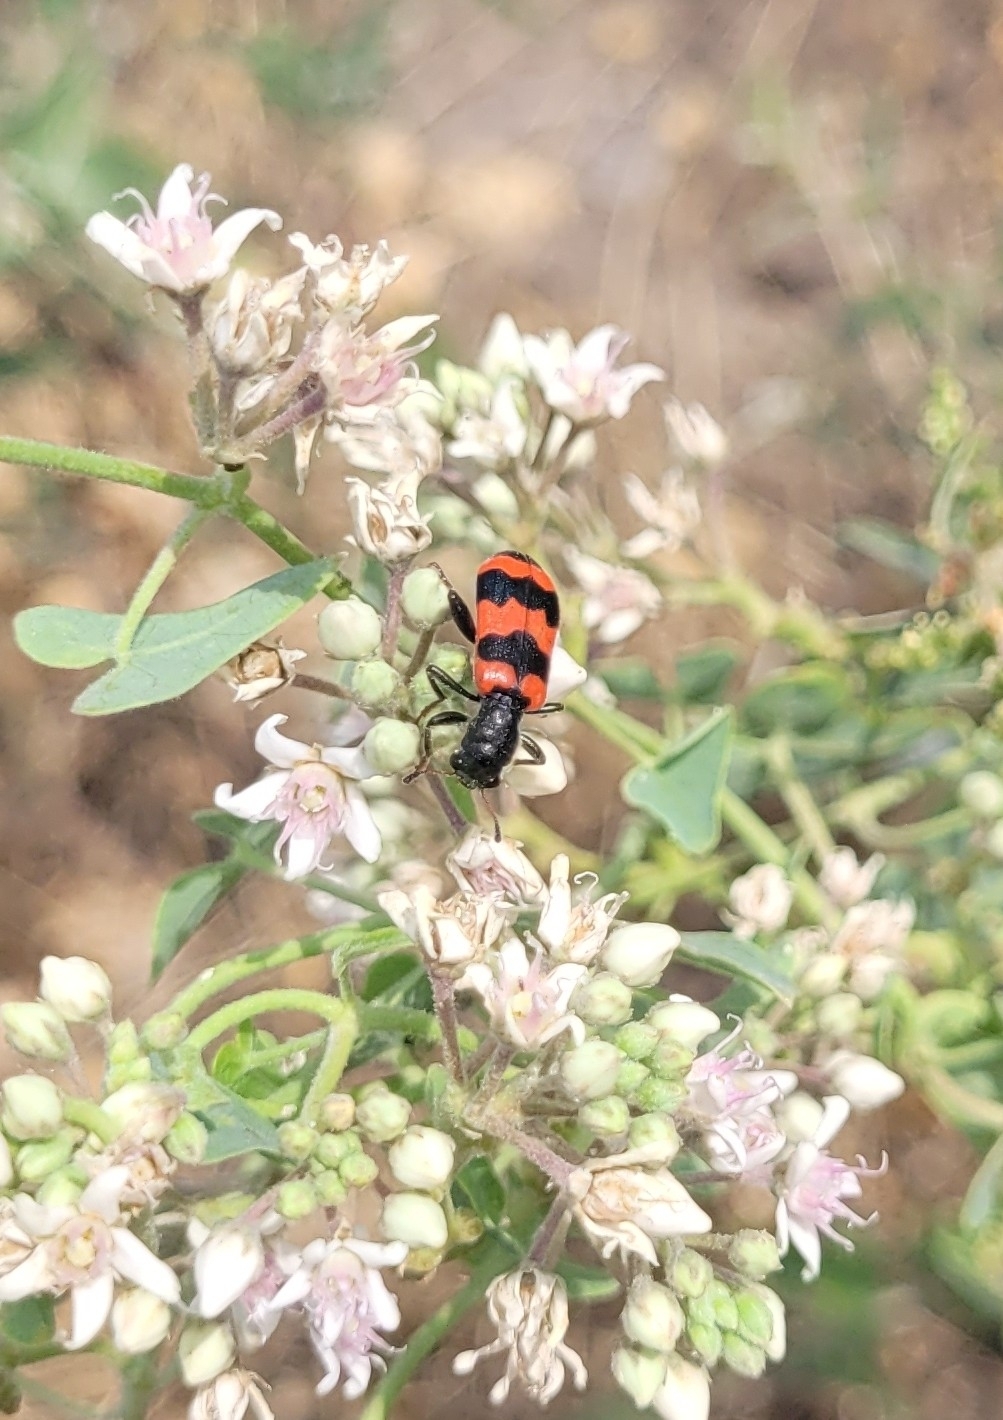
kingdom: Animalia
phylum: Arthropoda
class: Insecta
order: Coleoptera
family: Cleridae
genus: Trichodes
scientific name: Trichodes apiarius
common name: Bee-eating beetle
